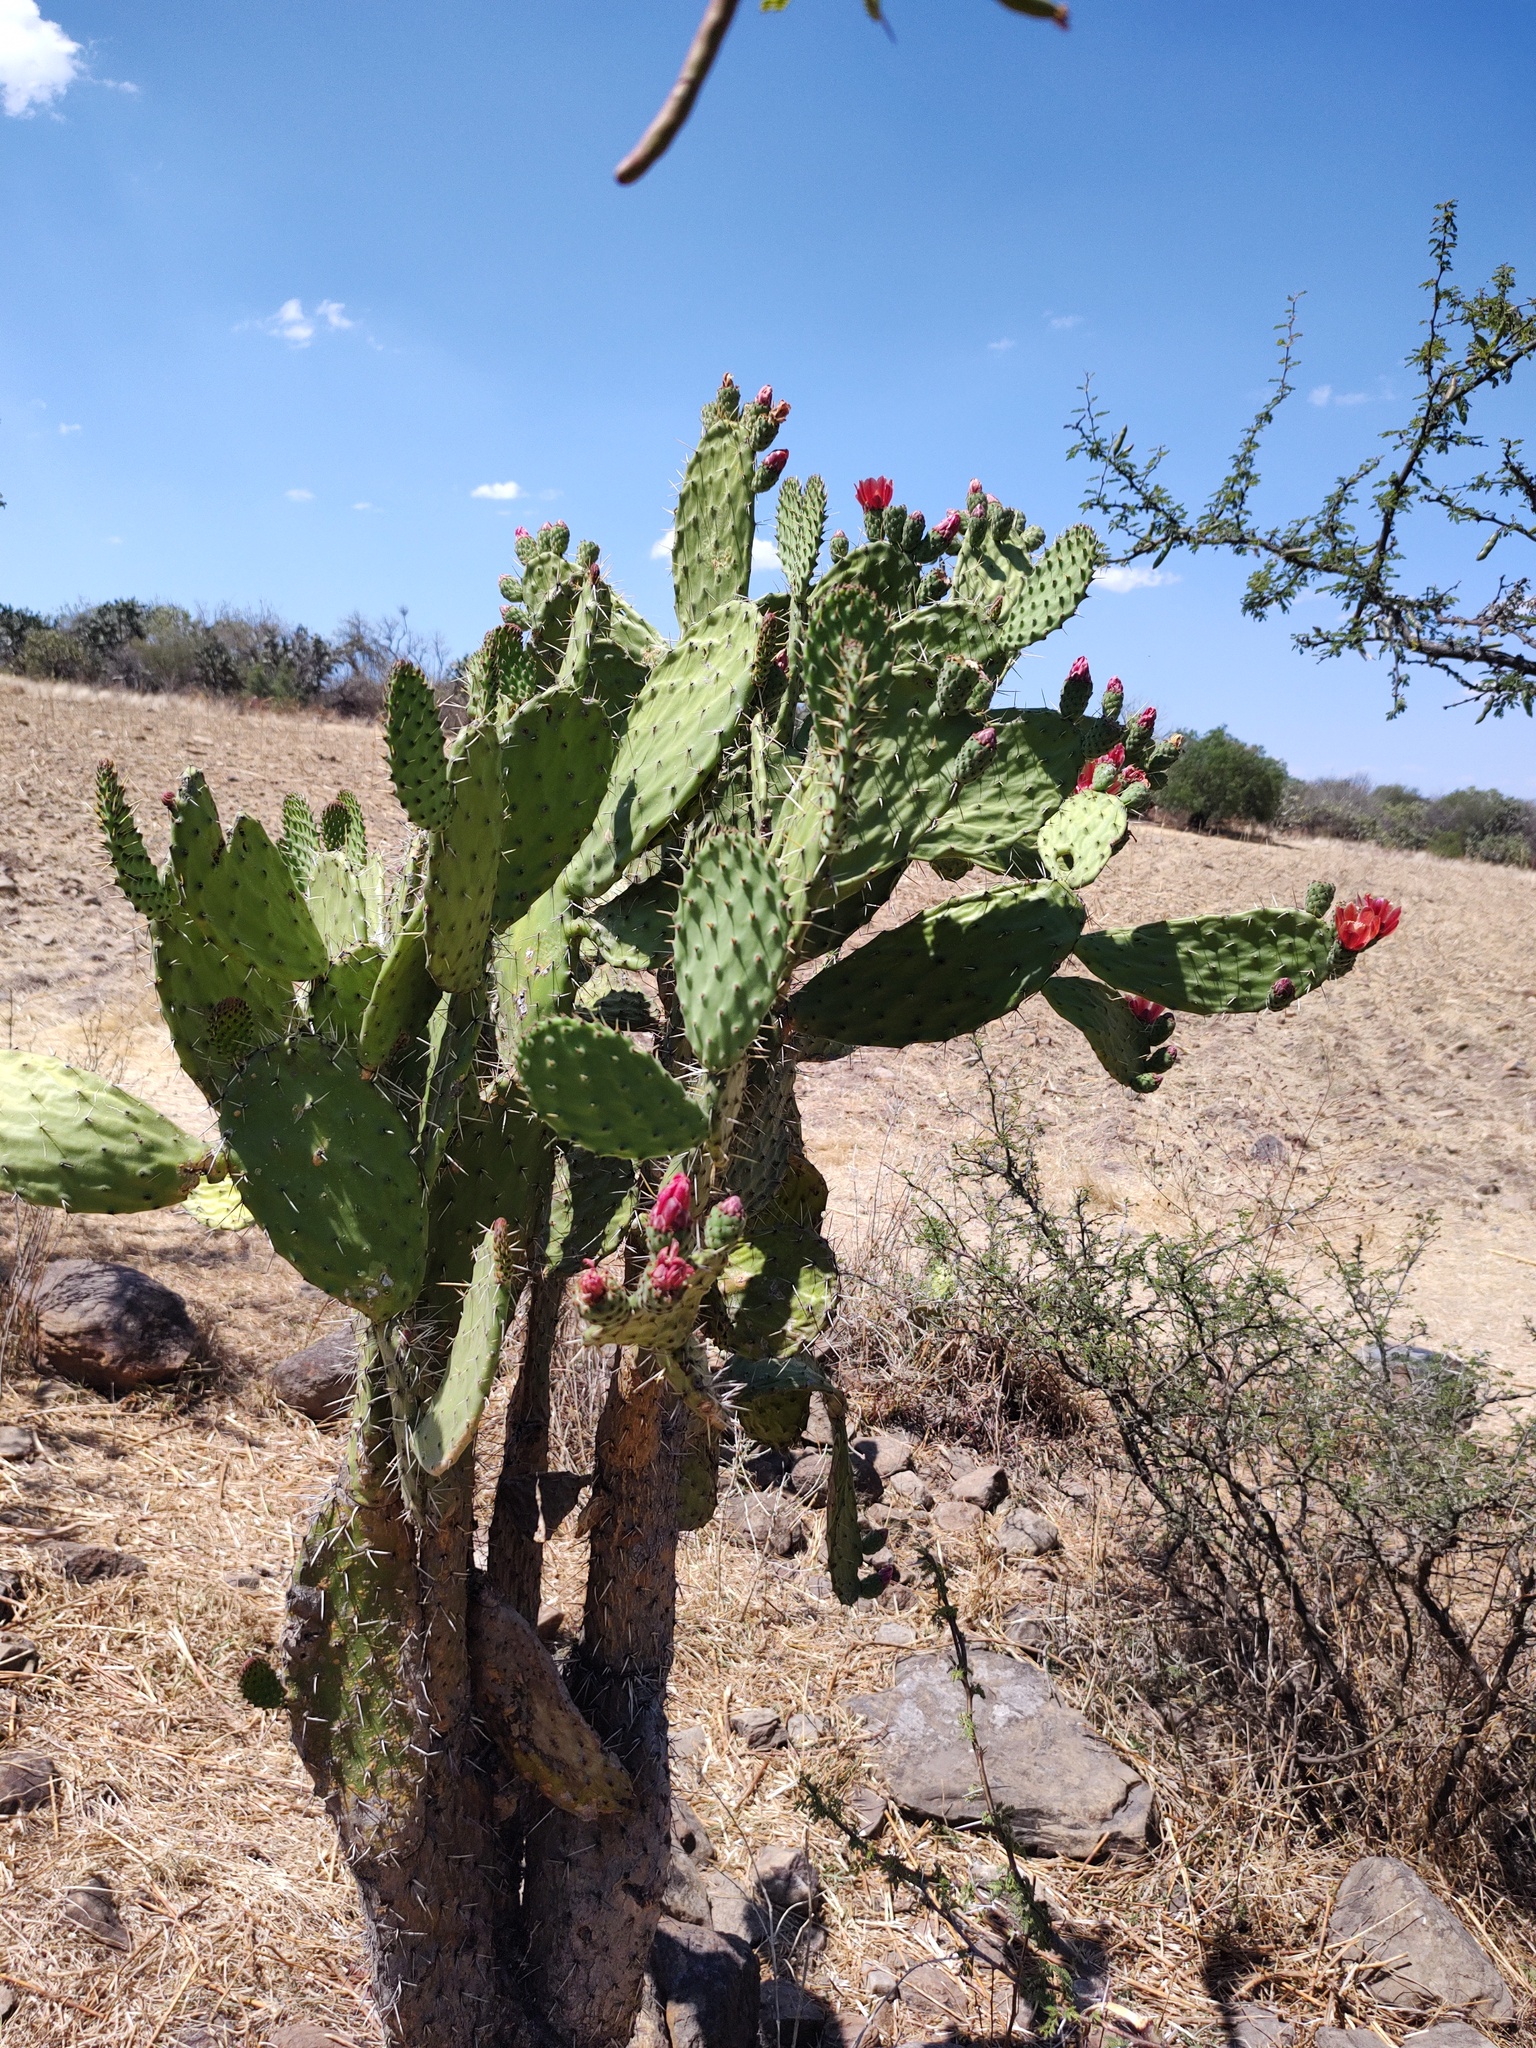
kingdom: Plantae
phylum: Tracheophyta
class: Magnoliopsida
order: Caryophyllales
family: Cactaceae
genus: Opuntia
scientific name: Opuntia tomentosa
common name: Woollyjoint pricklypear
